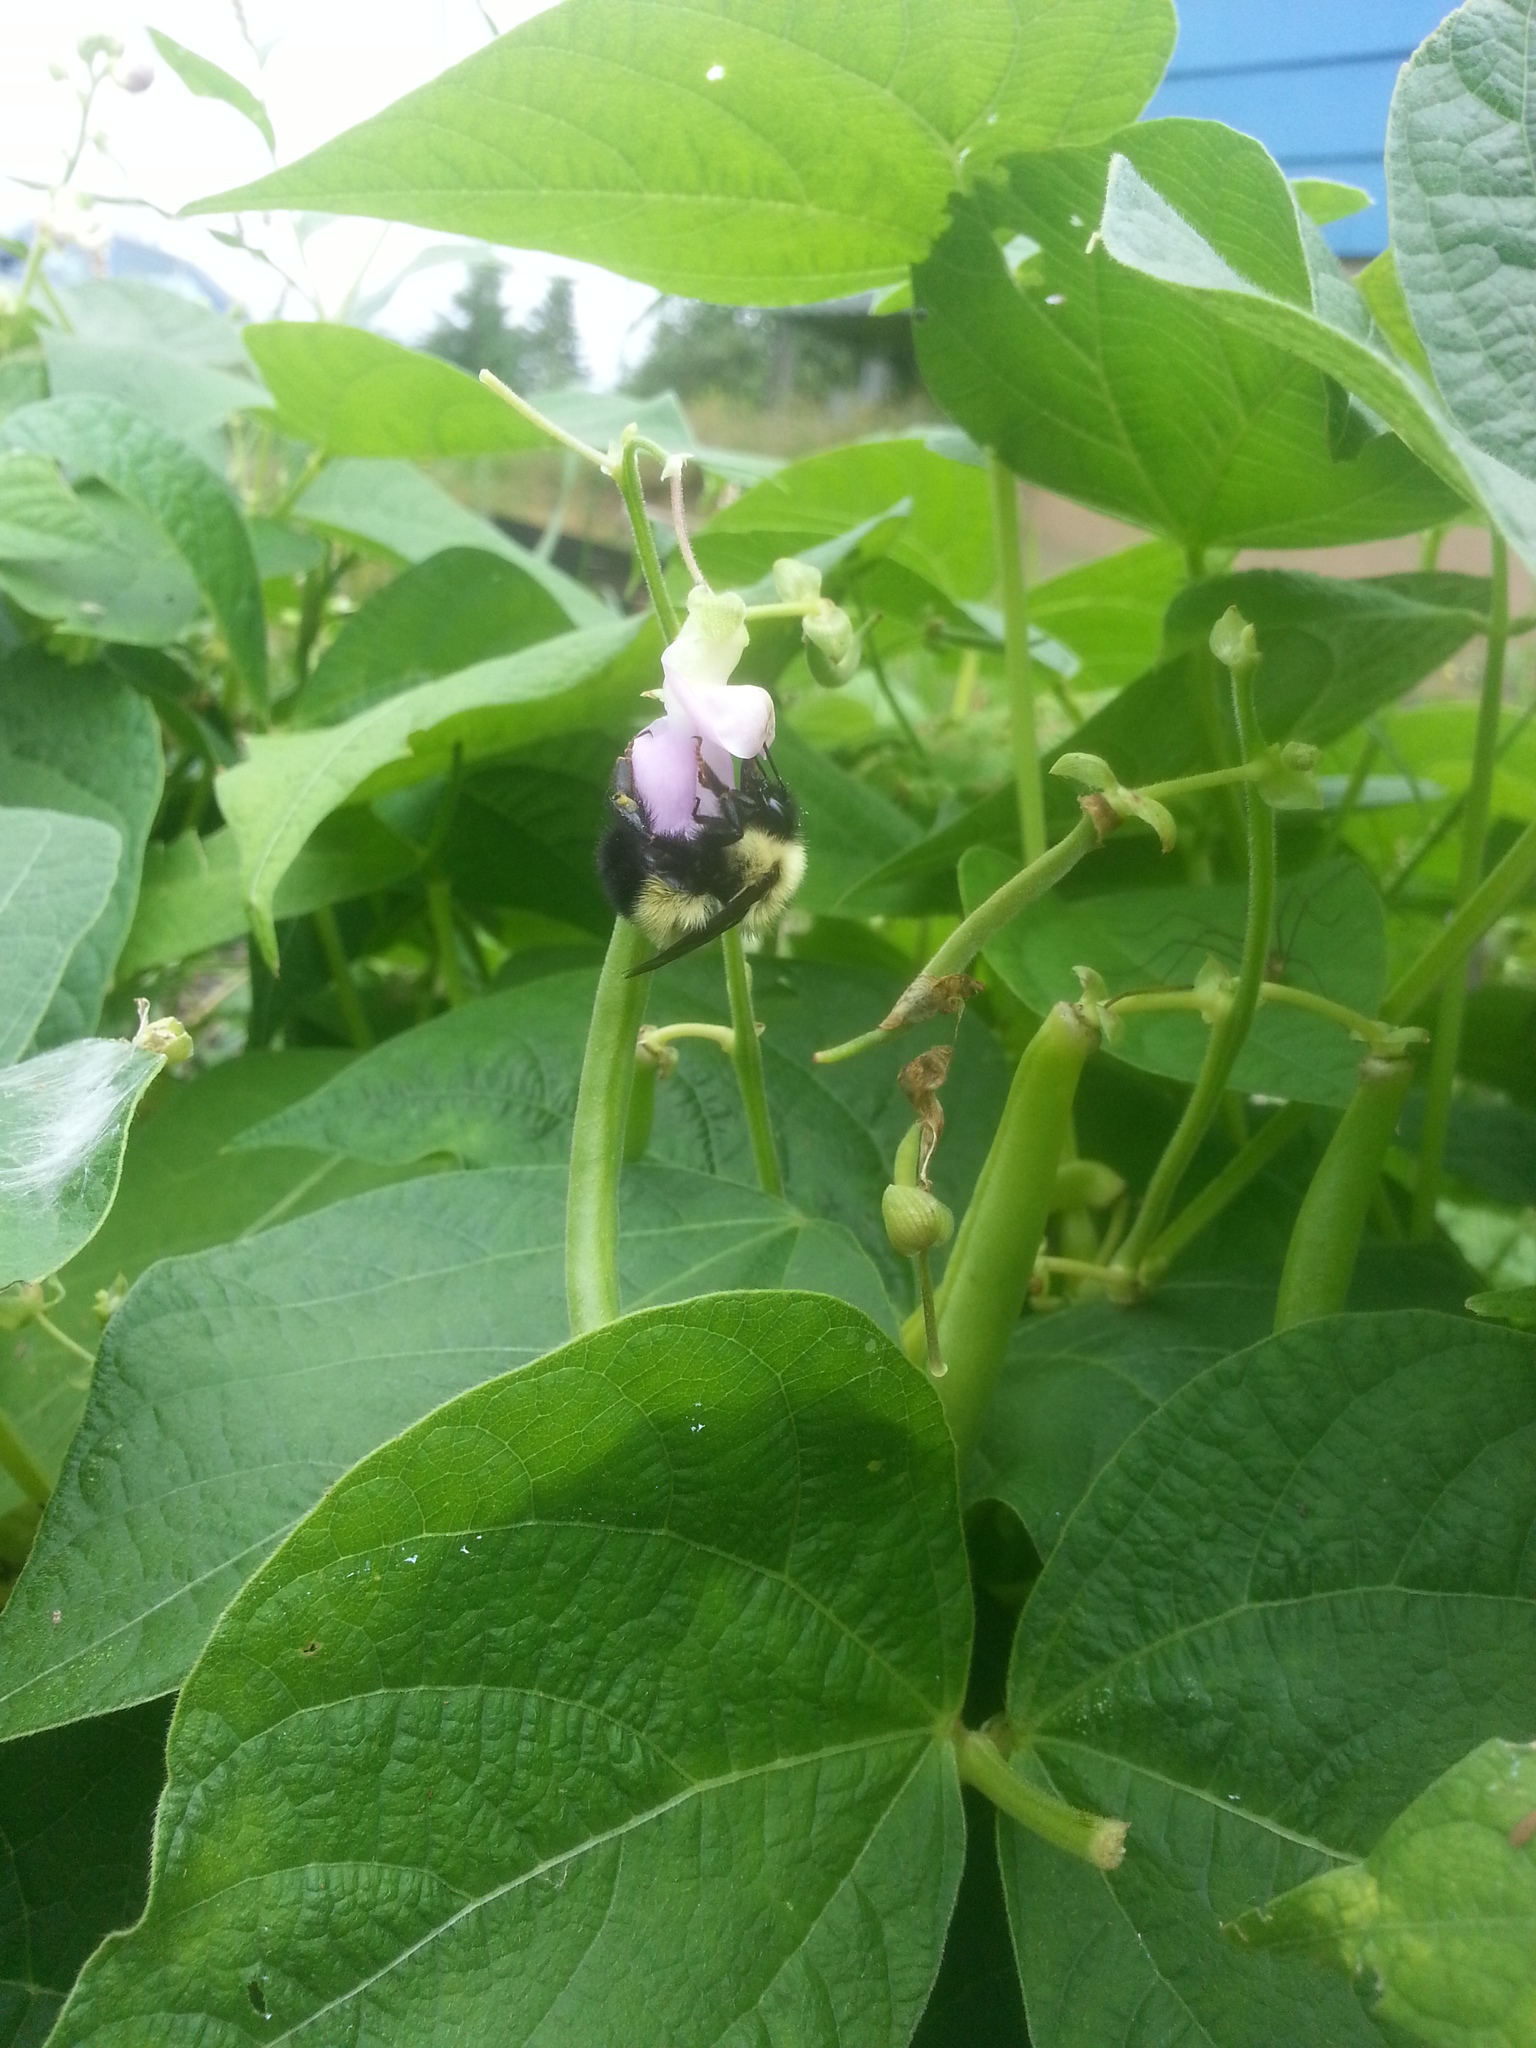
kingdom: Animalia
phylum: Arthropoda
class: Insecta
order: Hymenoptera
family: Apidae
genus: Pyrobombus
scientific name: Pyrobombus
